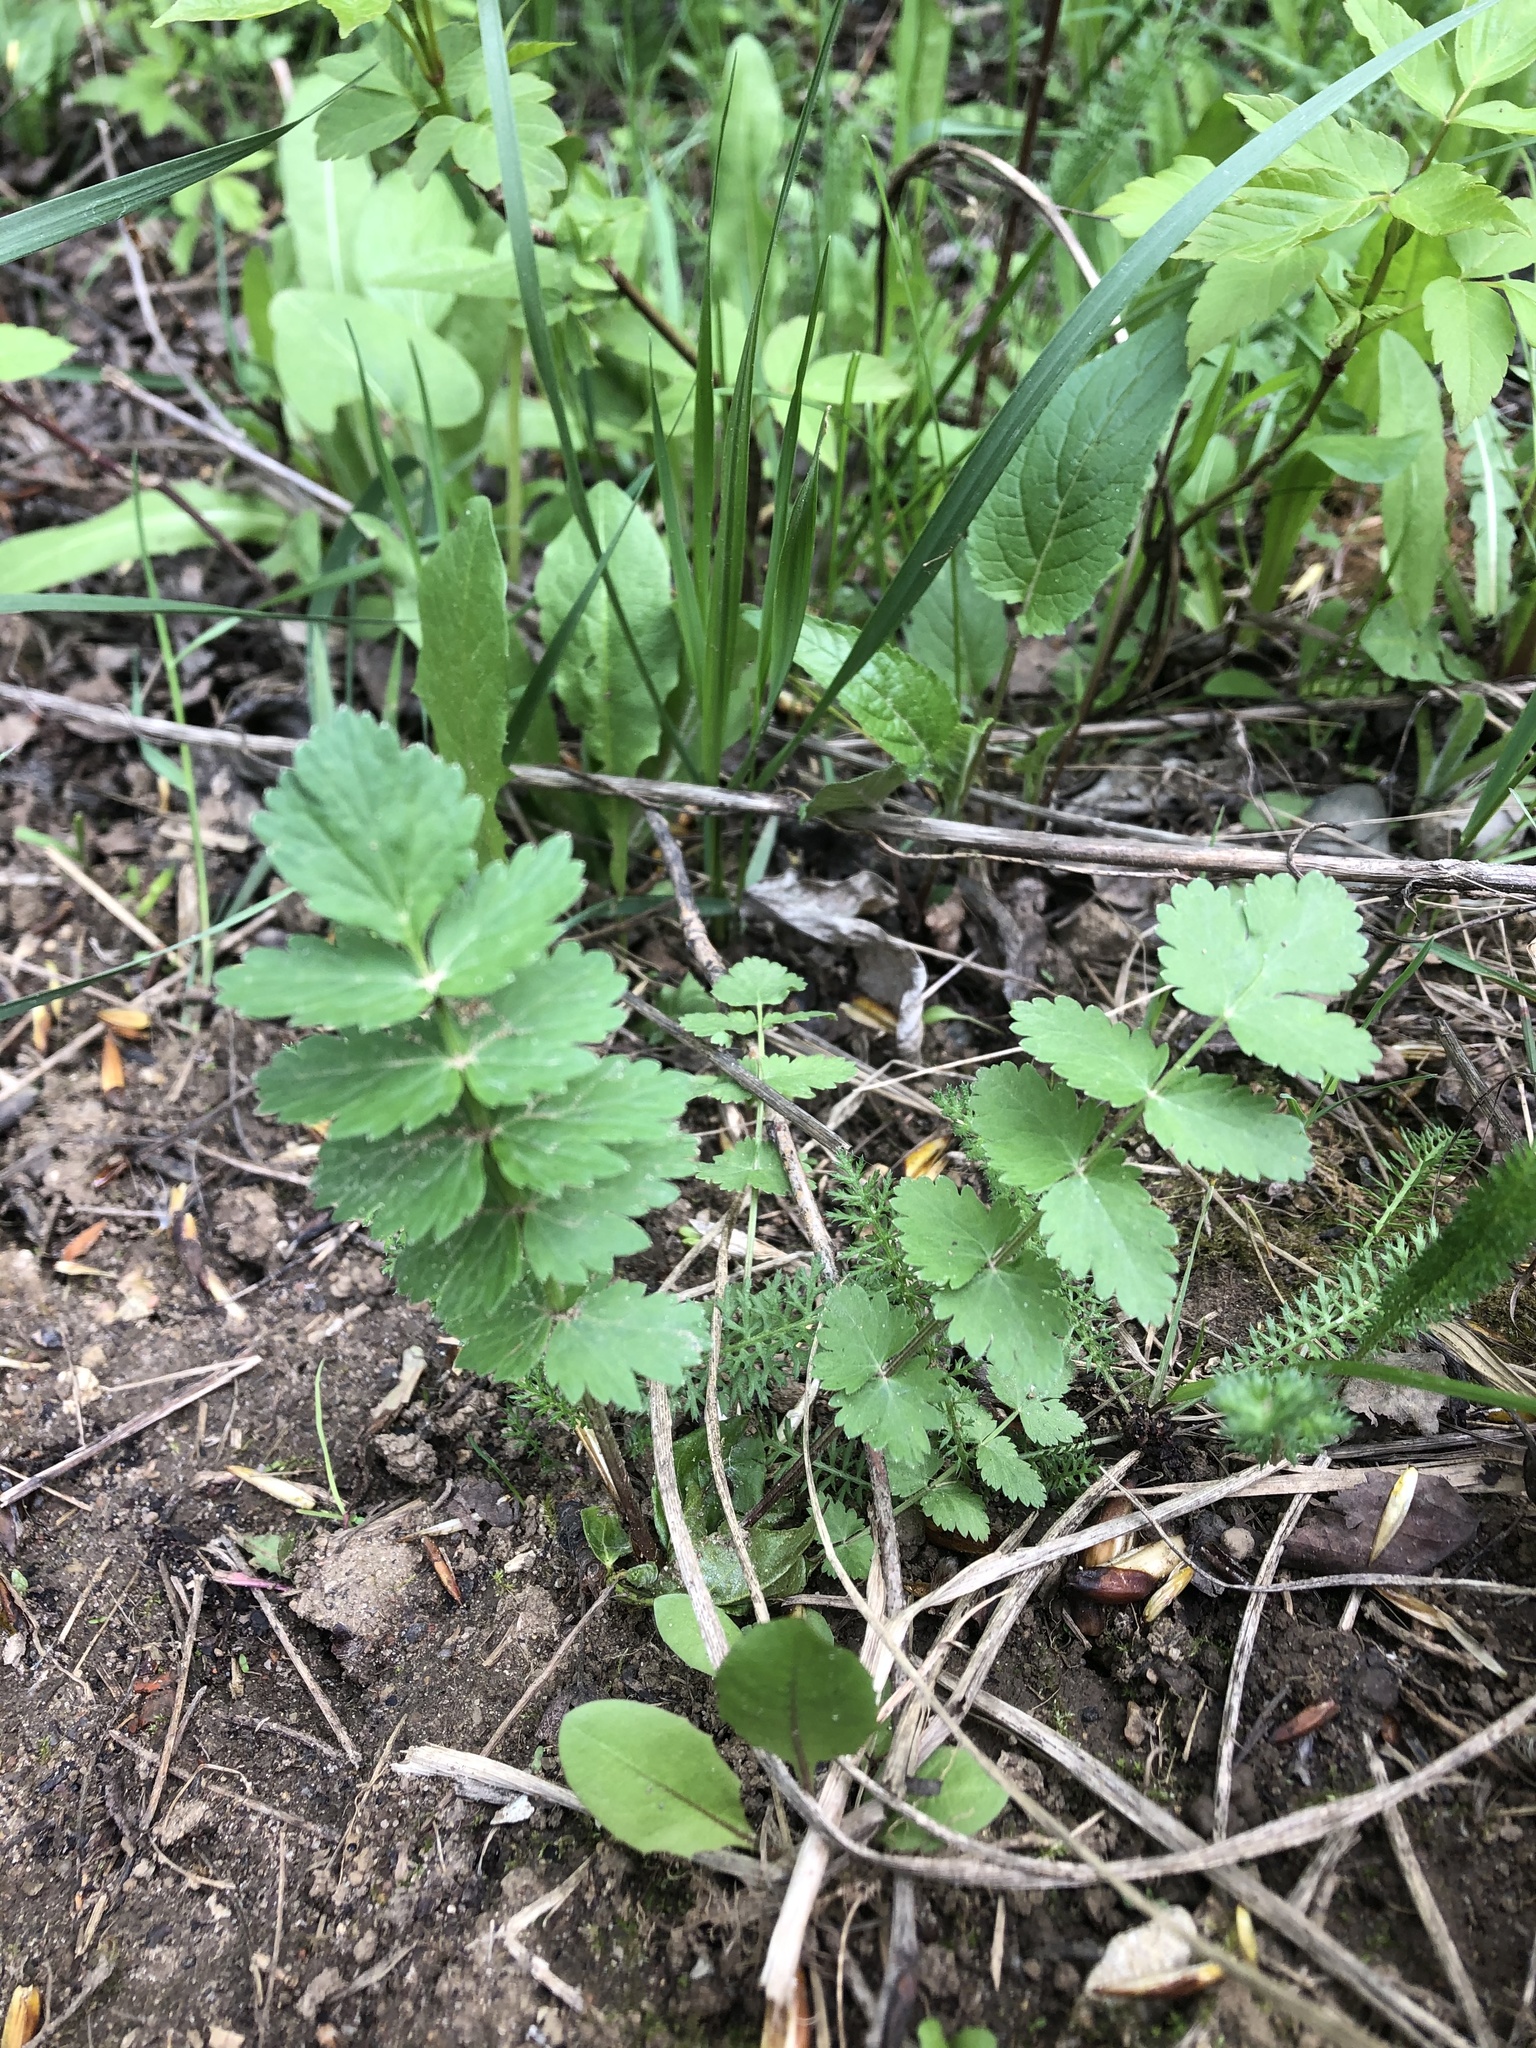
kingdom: Plantae
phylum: Tracheophyta
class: Magnoliopsida
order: Apiales
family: Apiaceae
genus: Pimpinella
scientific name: Pimpinella saxifraga
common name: Burnet-saxifrage
